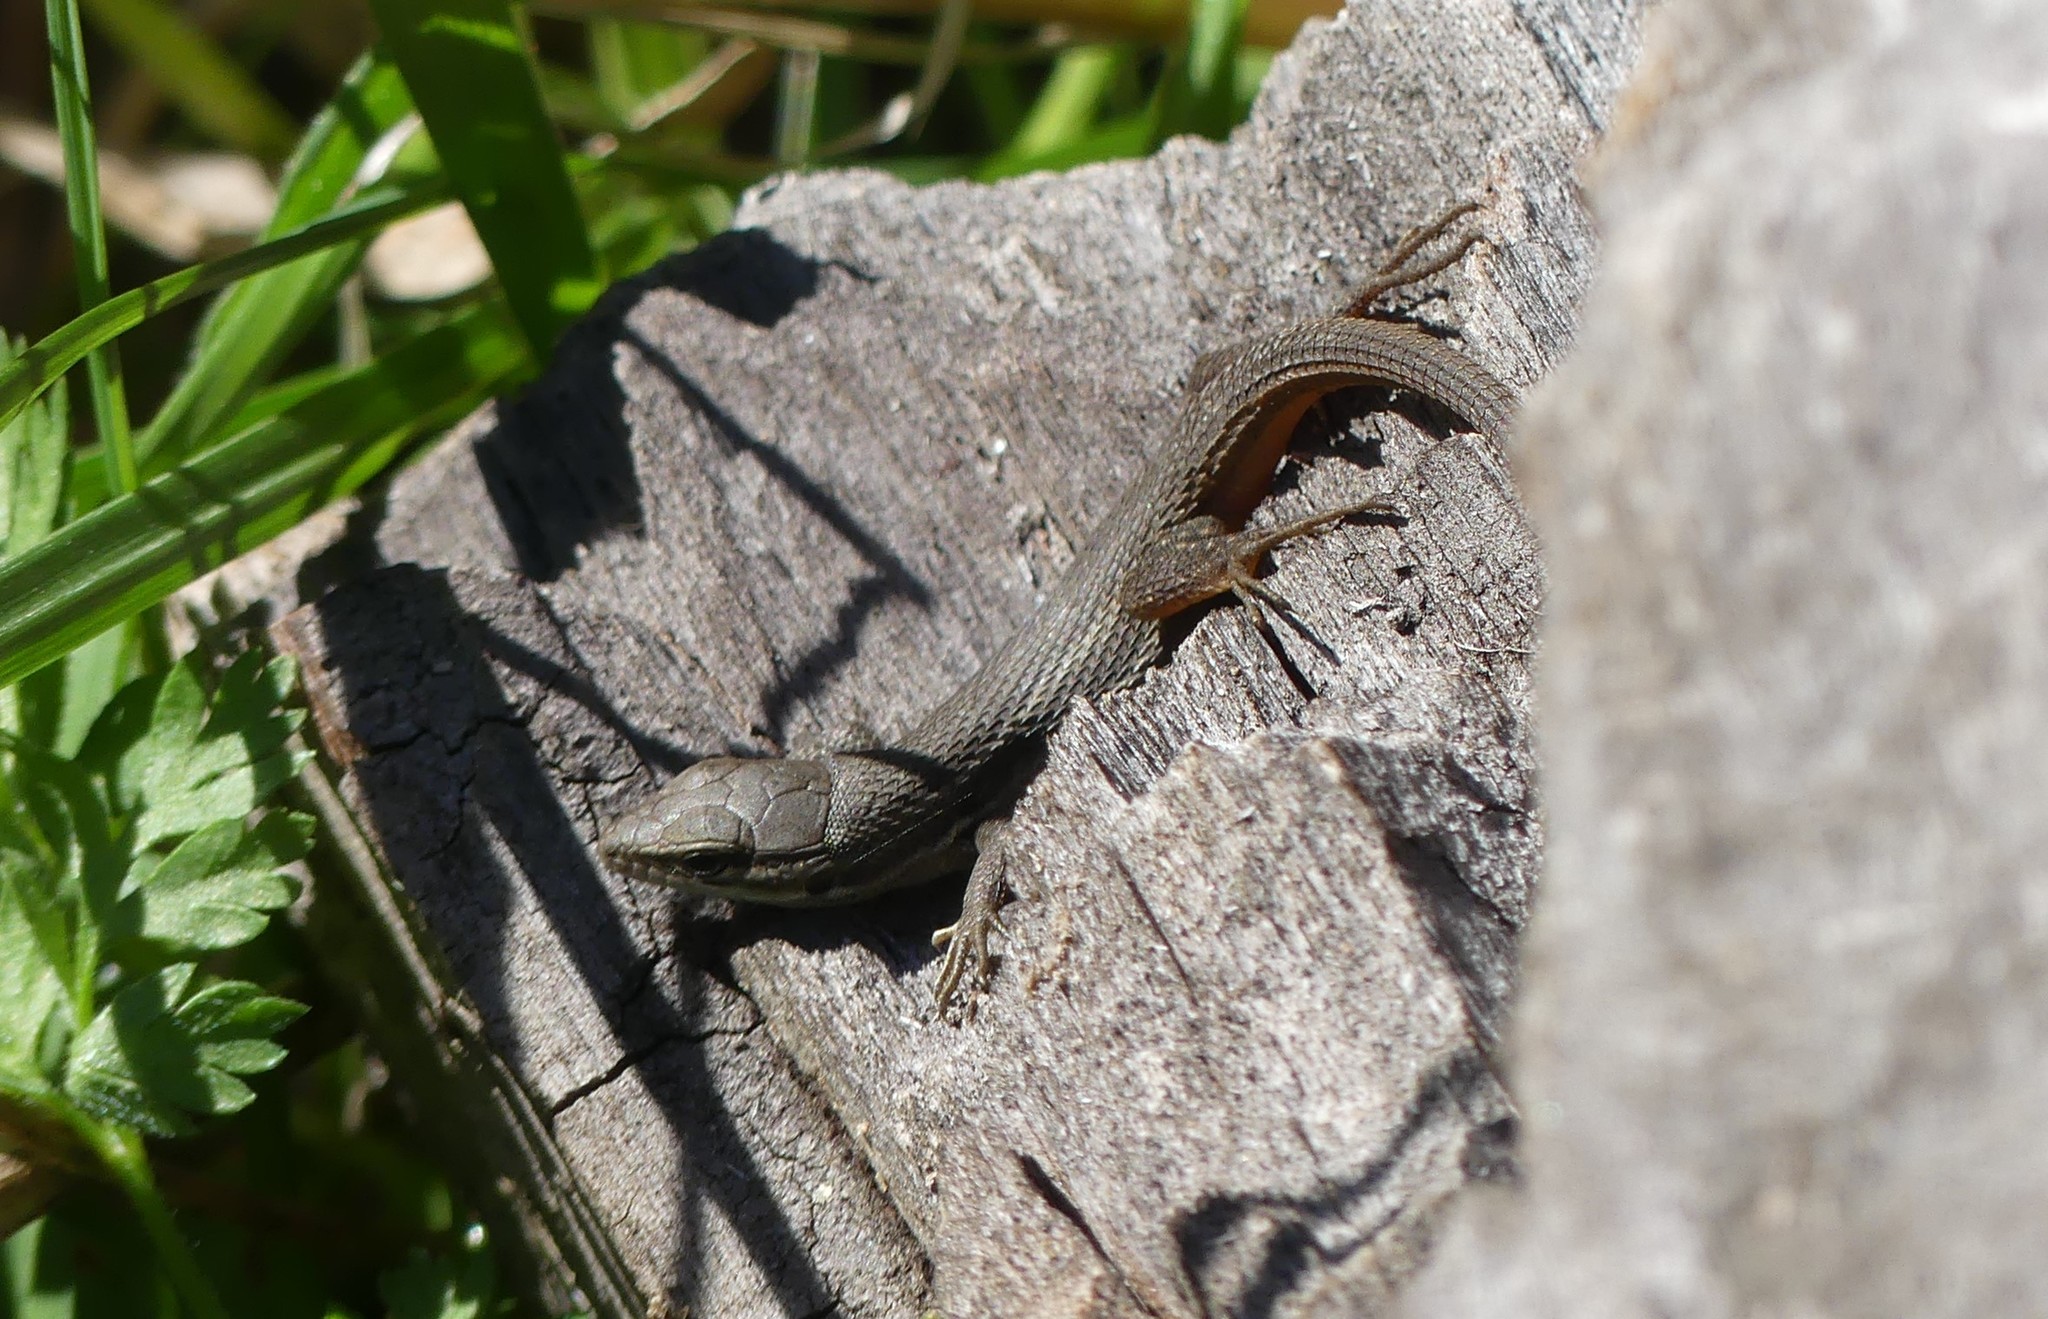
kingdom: Animalia
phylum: Chordata
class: Squamata
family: Lacertidae
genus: Psammodromus
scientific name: Psammodromus algirus
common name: Algerian psammodromus
